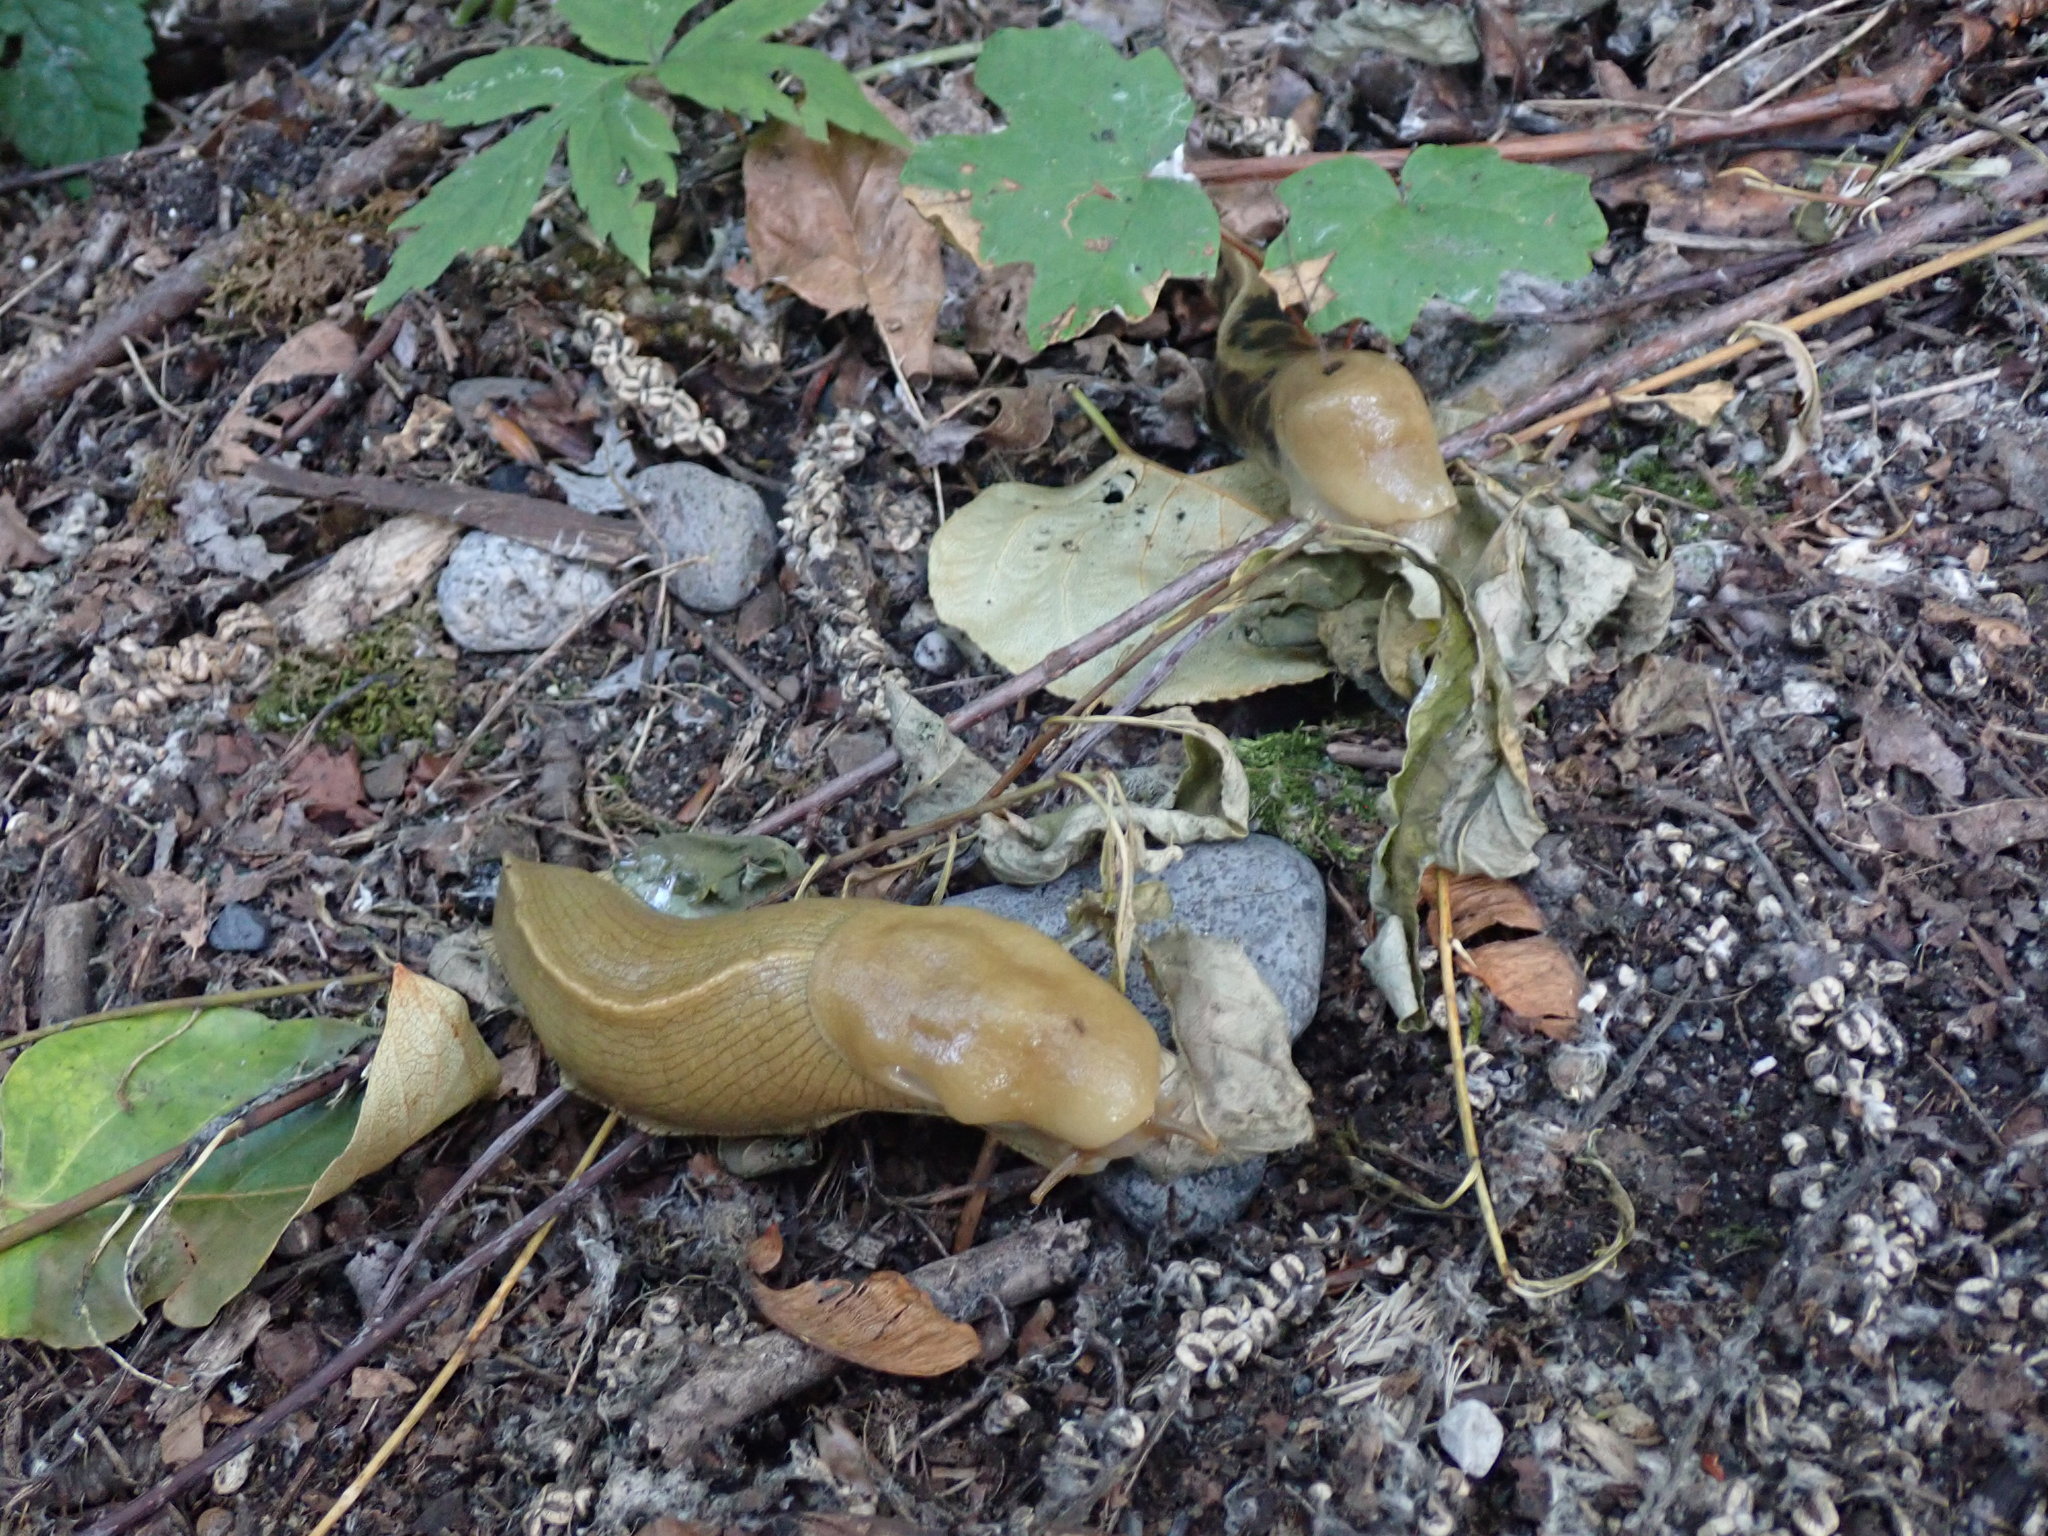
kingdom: Animalia
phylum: Mollusca
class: Gastropoda
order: Stylommatophora
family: Ariolimacidae
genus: Ariolimax
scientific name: Ariolimax columbianus
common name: Pacific banana slug
